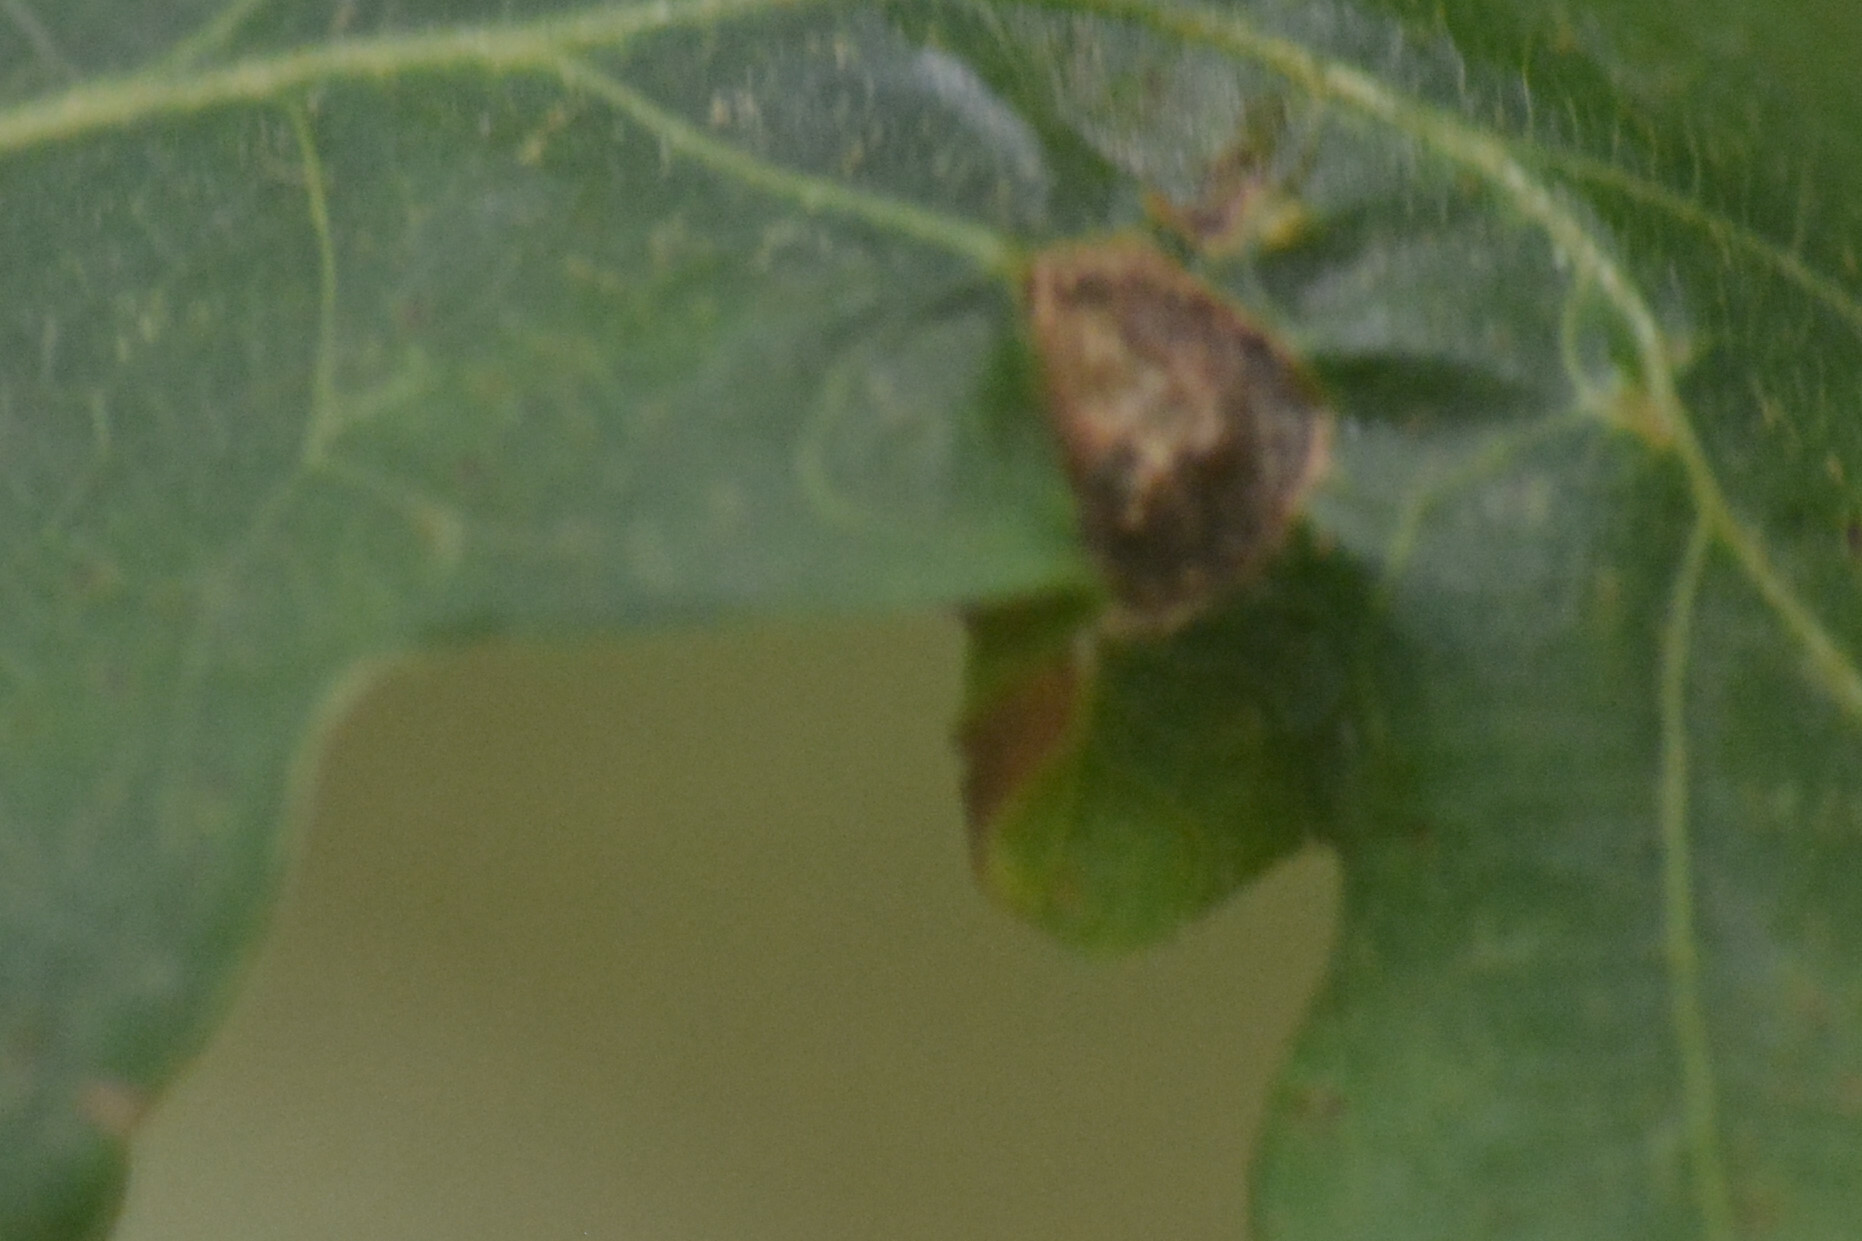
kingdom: Animalia
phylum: Arthropoda
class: Insecta
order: Hymenoptera
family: Cynipidae
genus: Neuroterus
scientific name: Neuroterus quercusbaccarum
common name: Common spangle gall
